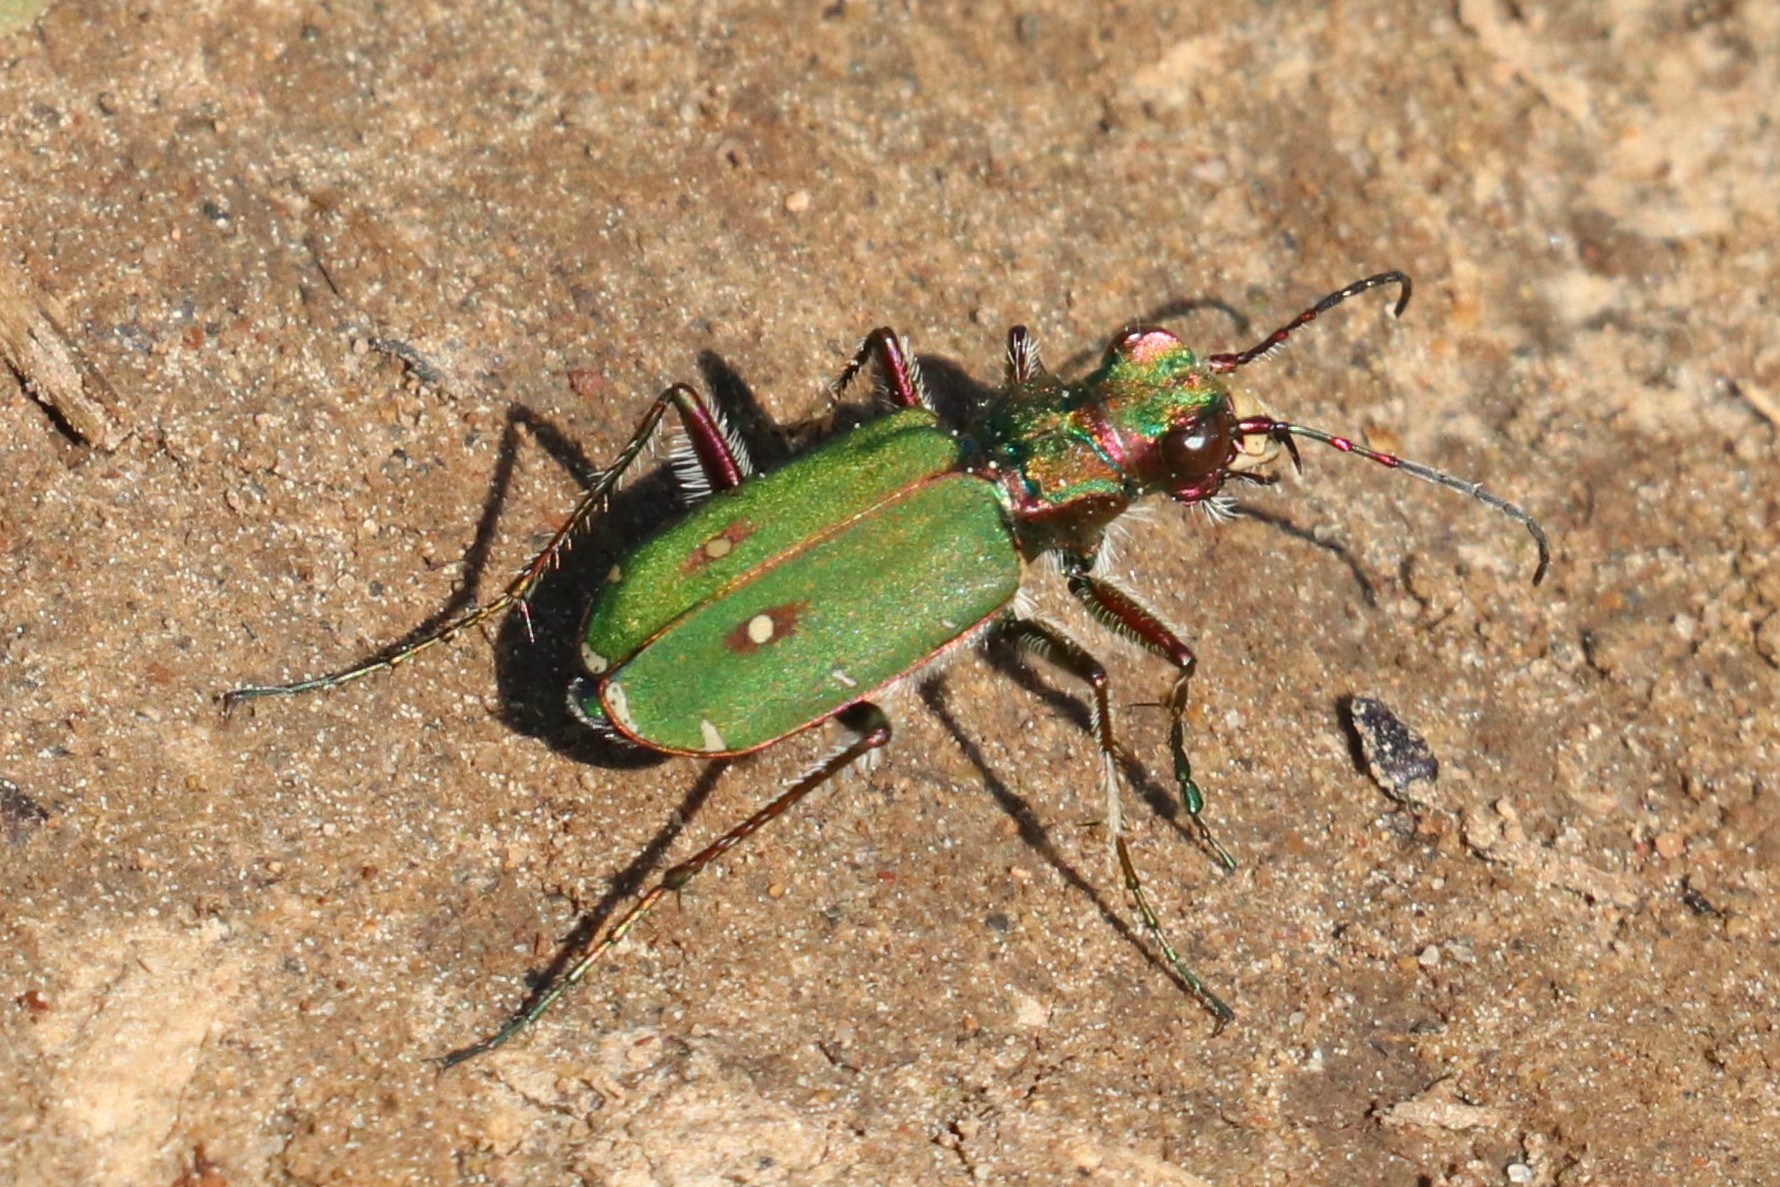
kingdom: Animalia
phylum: Arthropoda
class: Insecta
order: Coleoptera
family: Carabidae
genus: Cicindela
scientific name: Cicindela campestris
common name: Common tiger beetle
